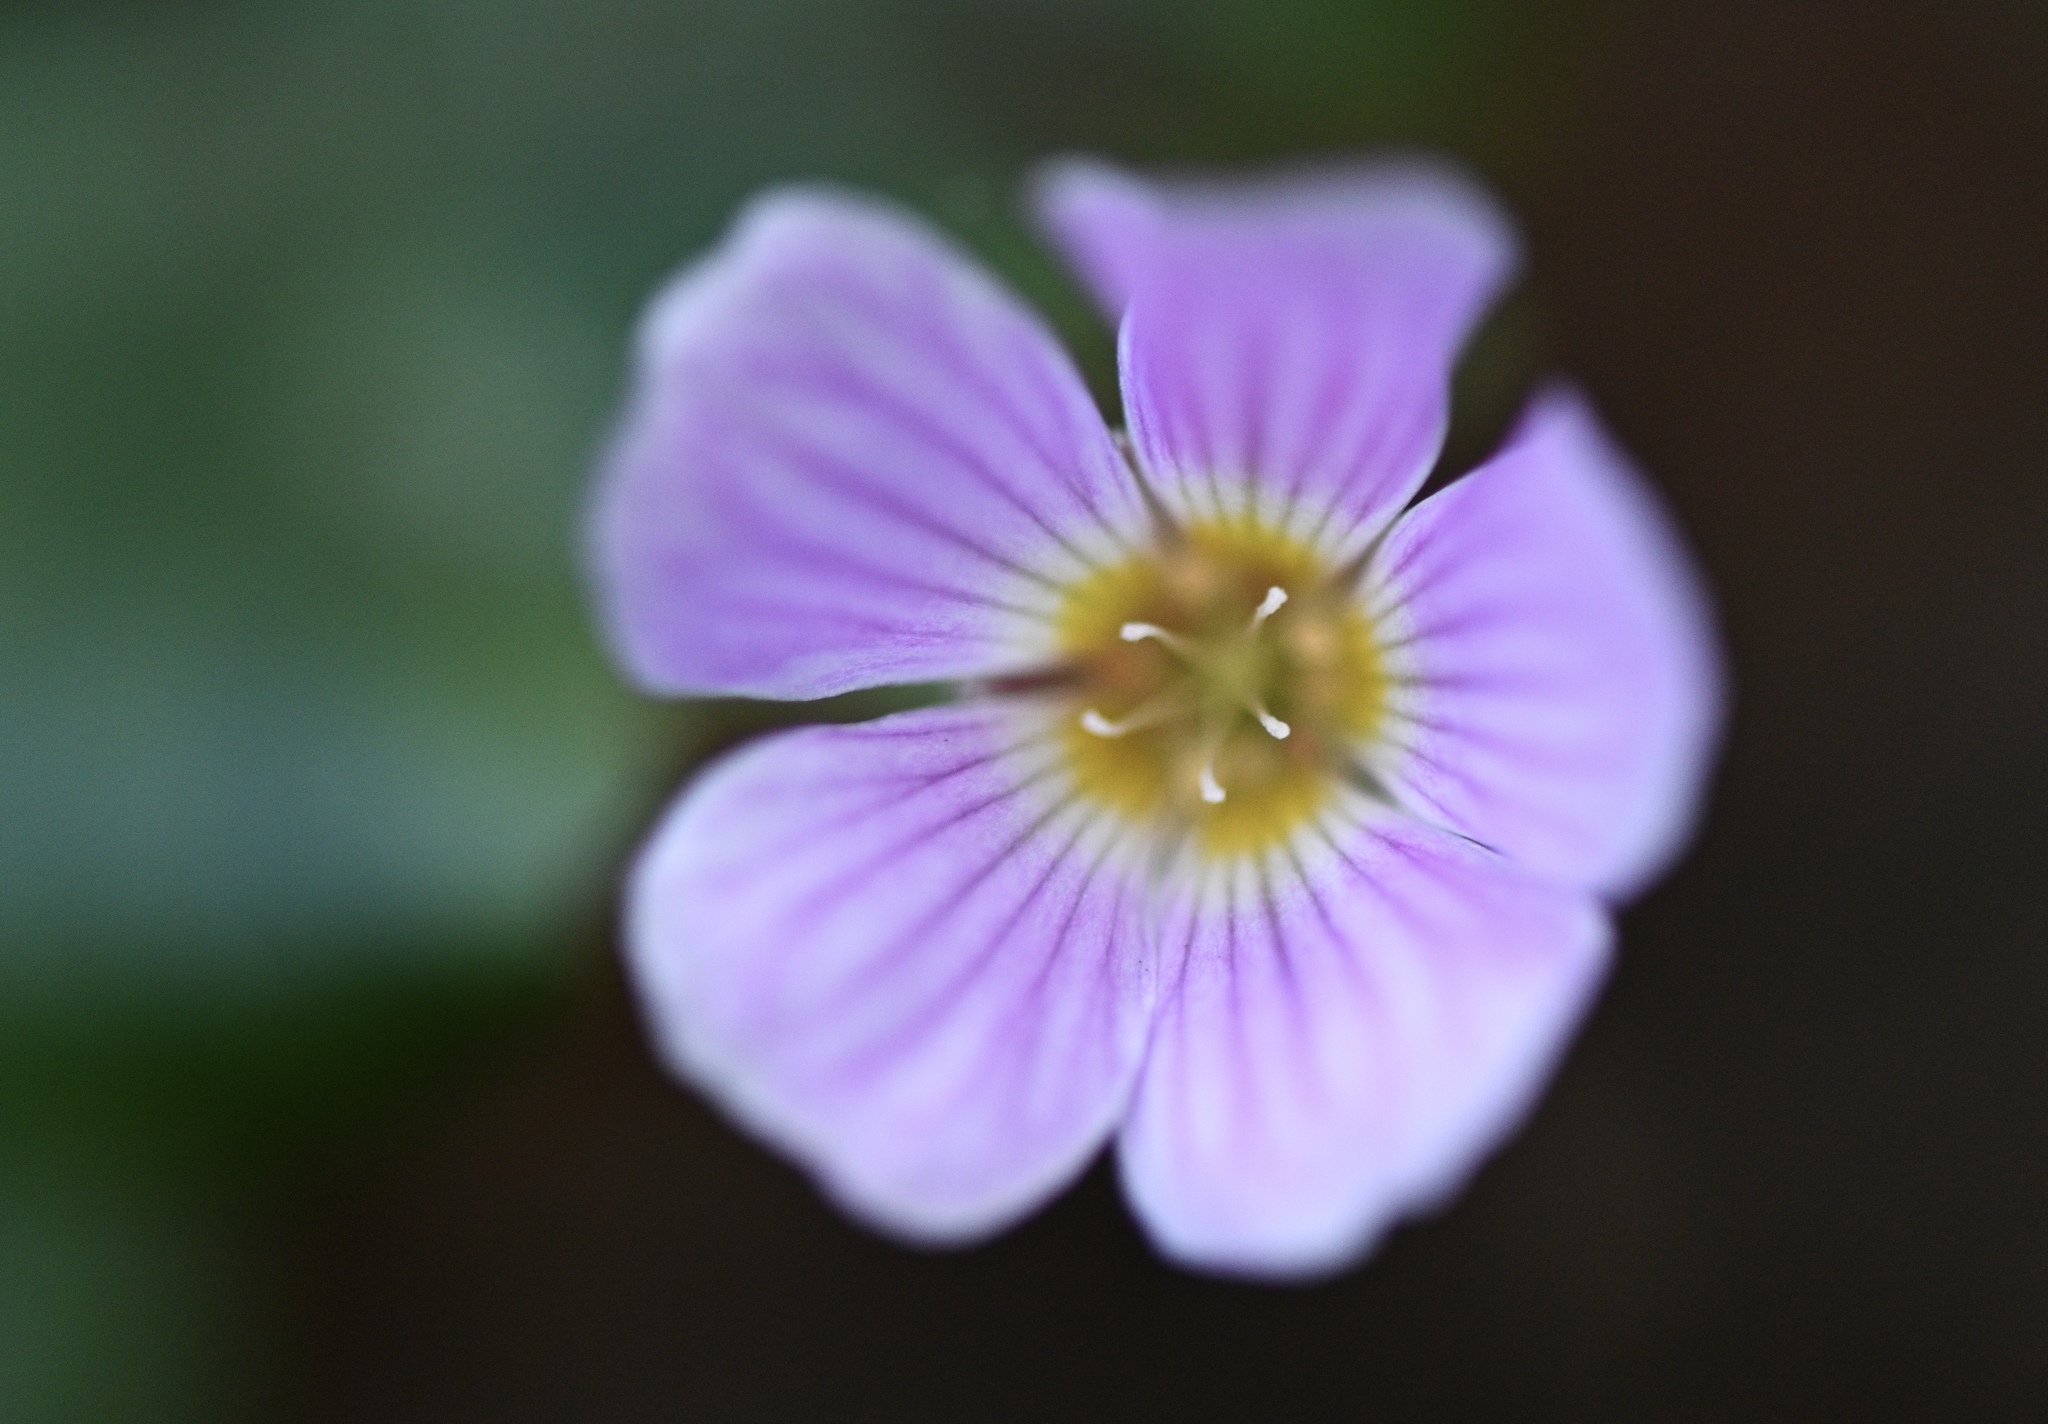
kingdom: Plantae
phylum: Tracheophyta
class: Magnoliopsida
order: Oxalidales
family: Oxalidaceae
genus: Oxalis
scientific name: Oxalis oregana
